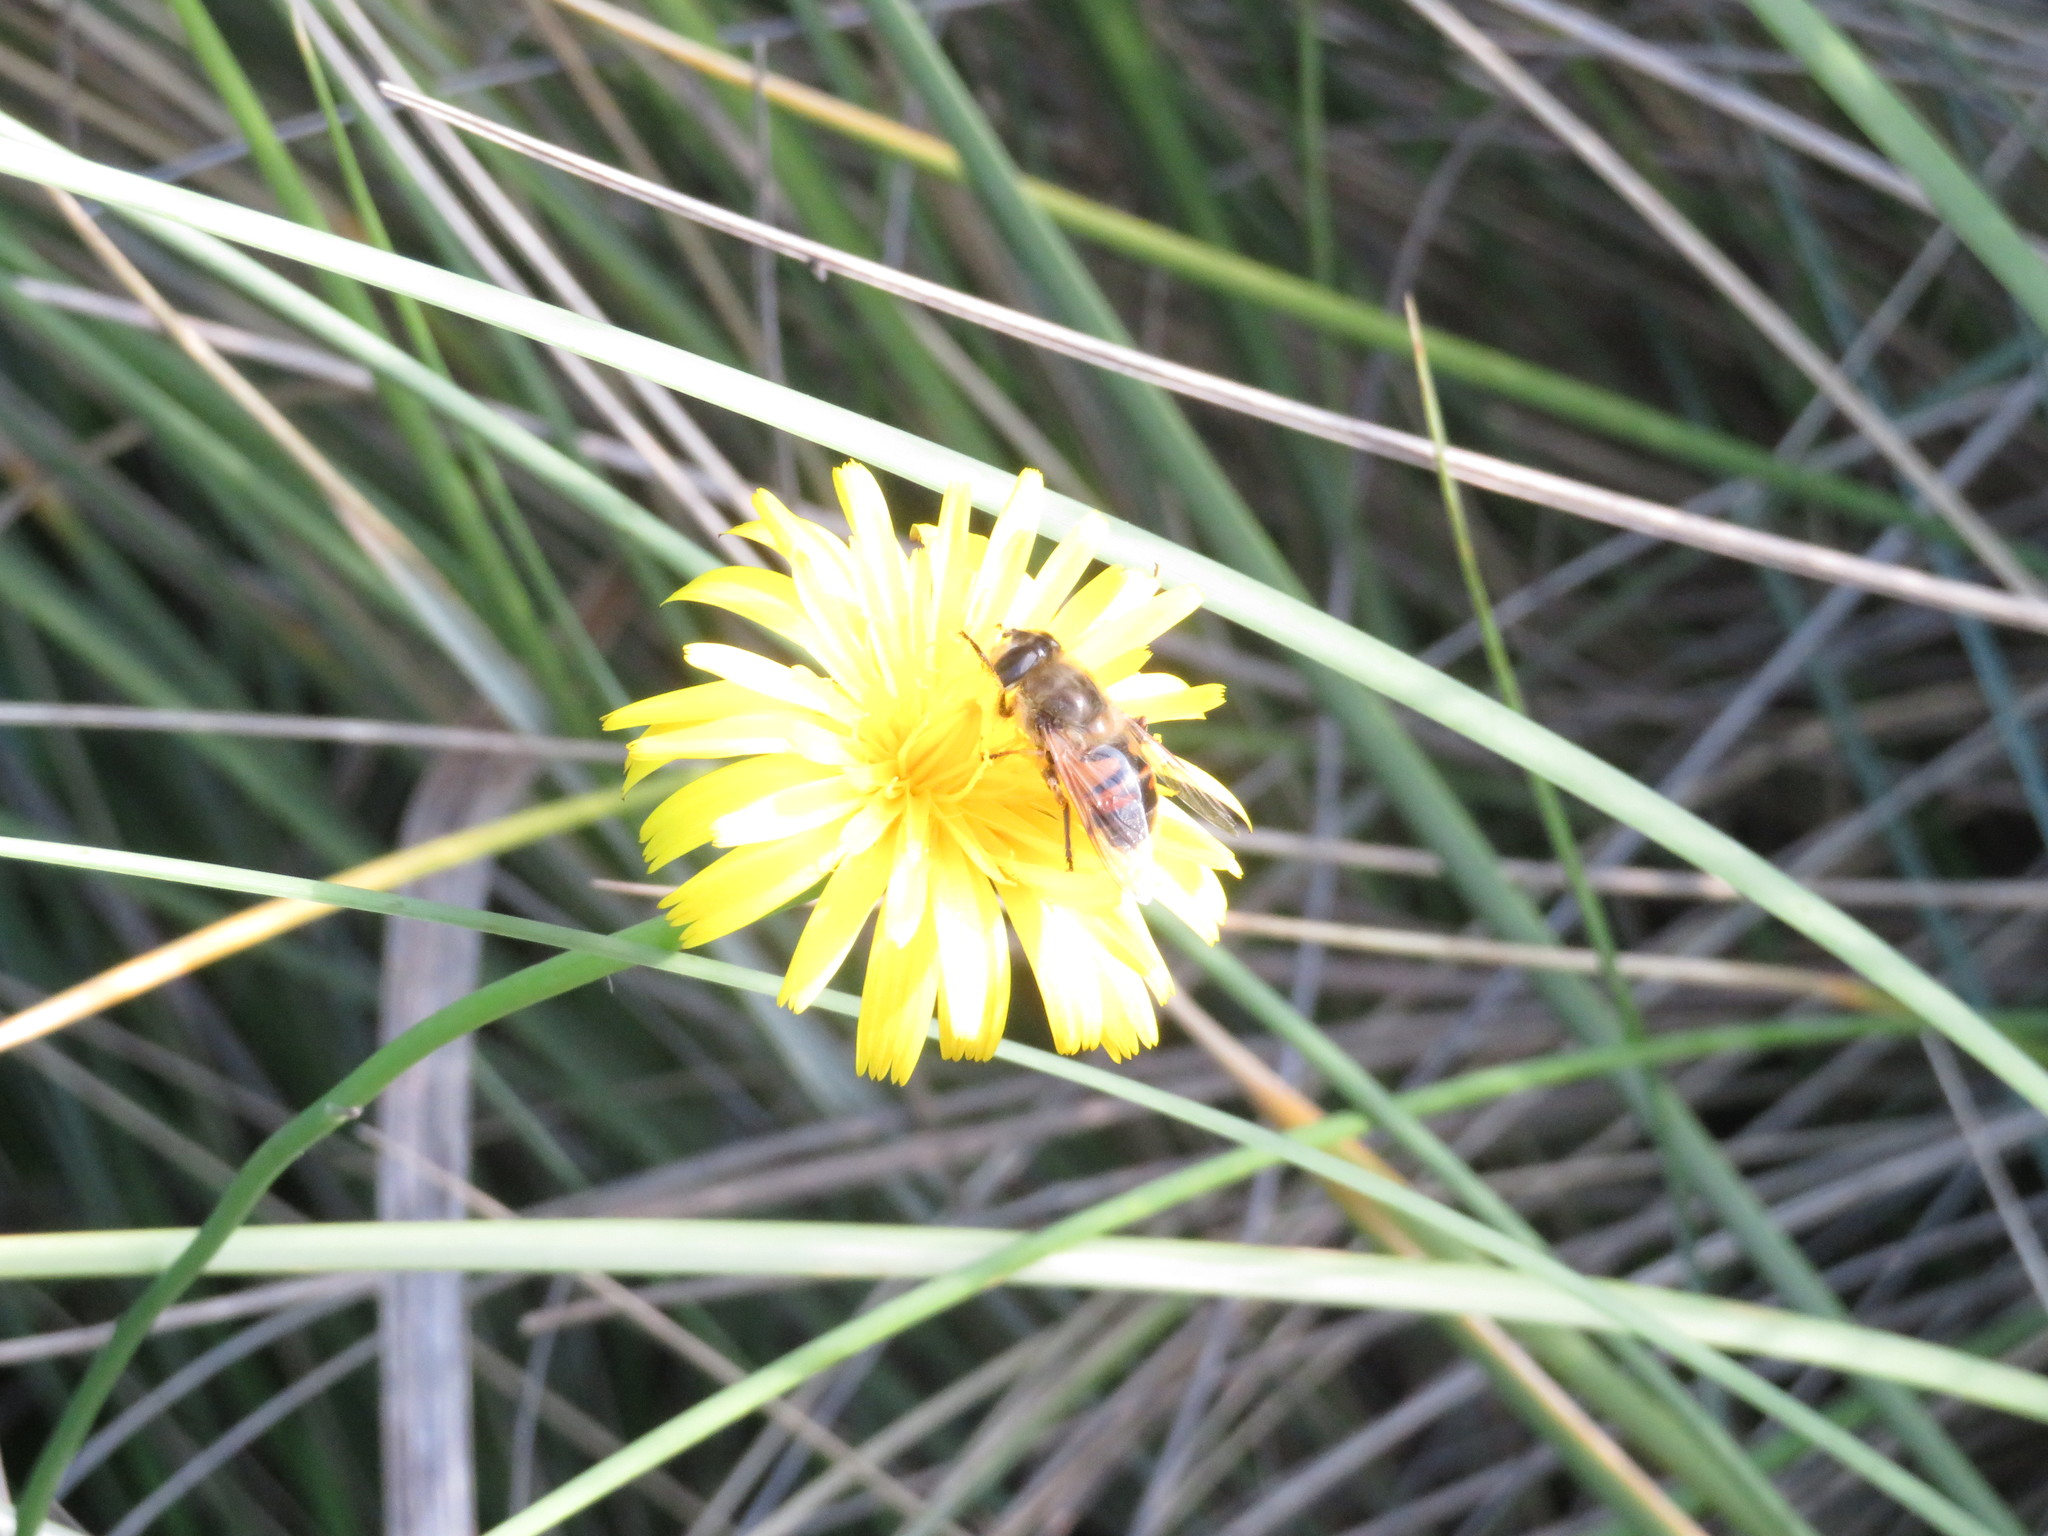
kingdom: Animalia
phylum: Arthropoda
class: Insecta
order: Diptera
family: Syrphidae
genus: Eristalis
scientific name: Eristalis tenax
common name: Drone fly
